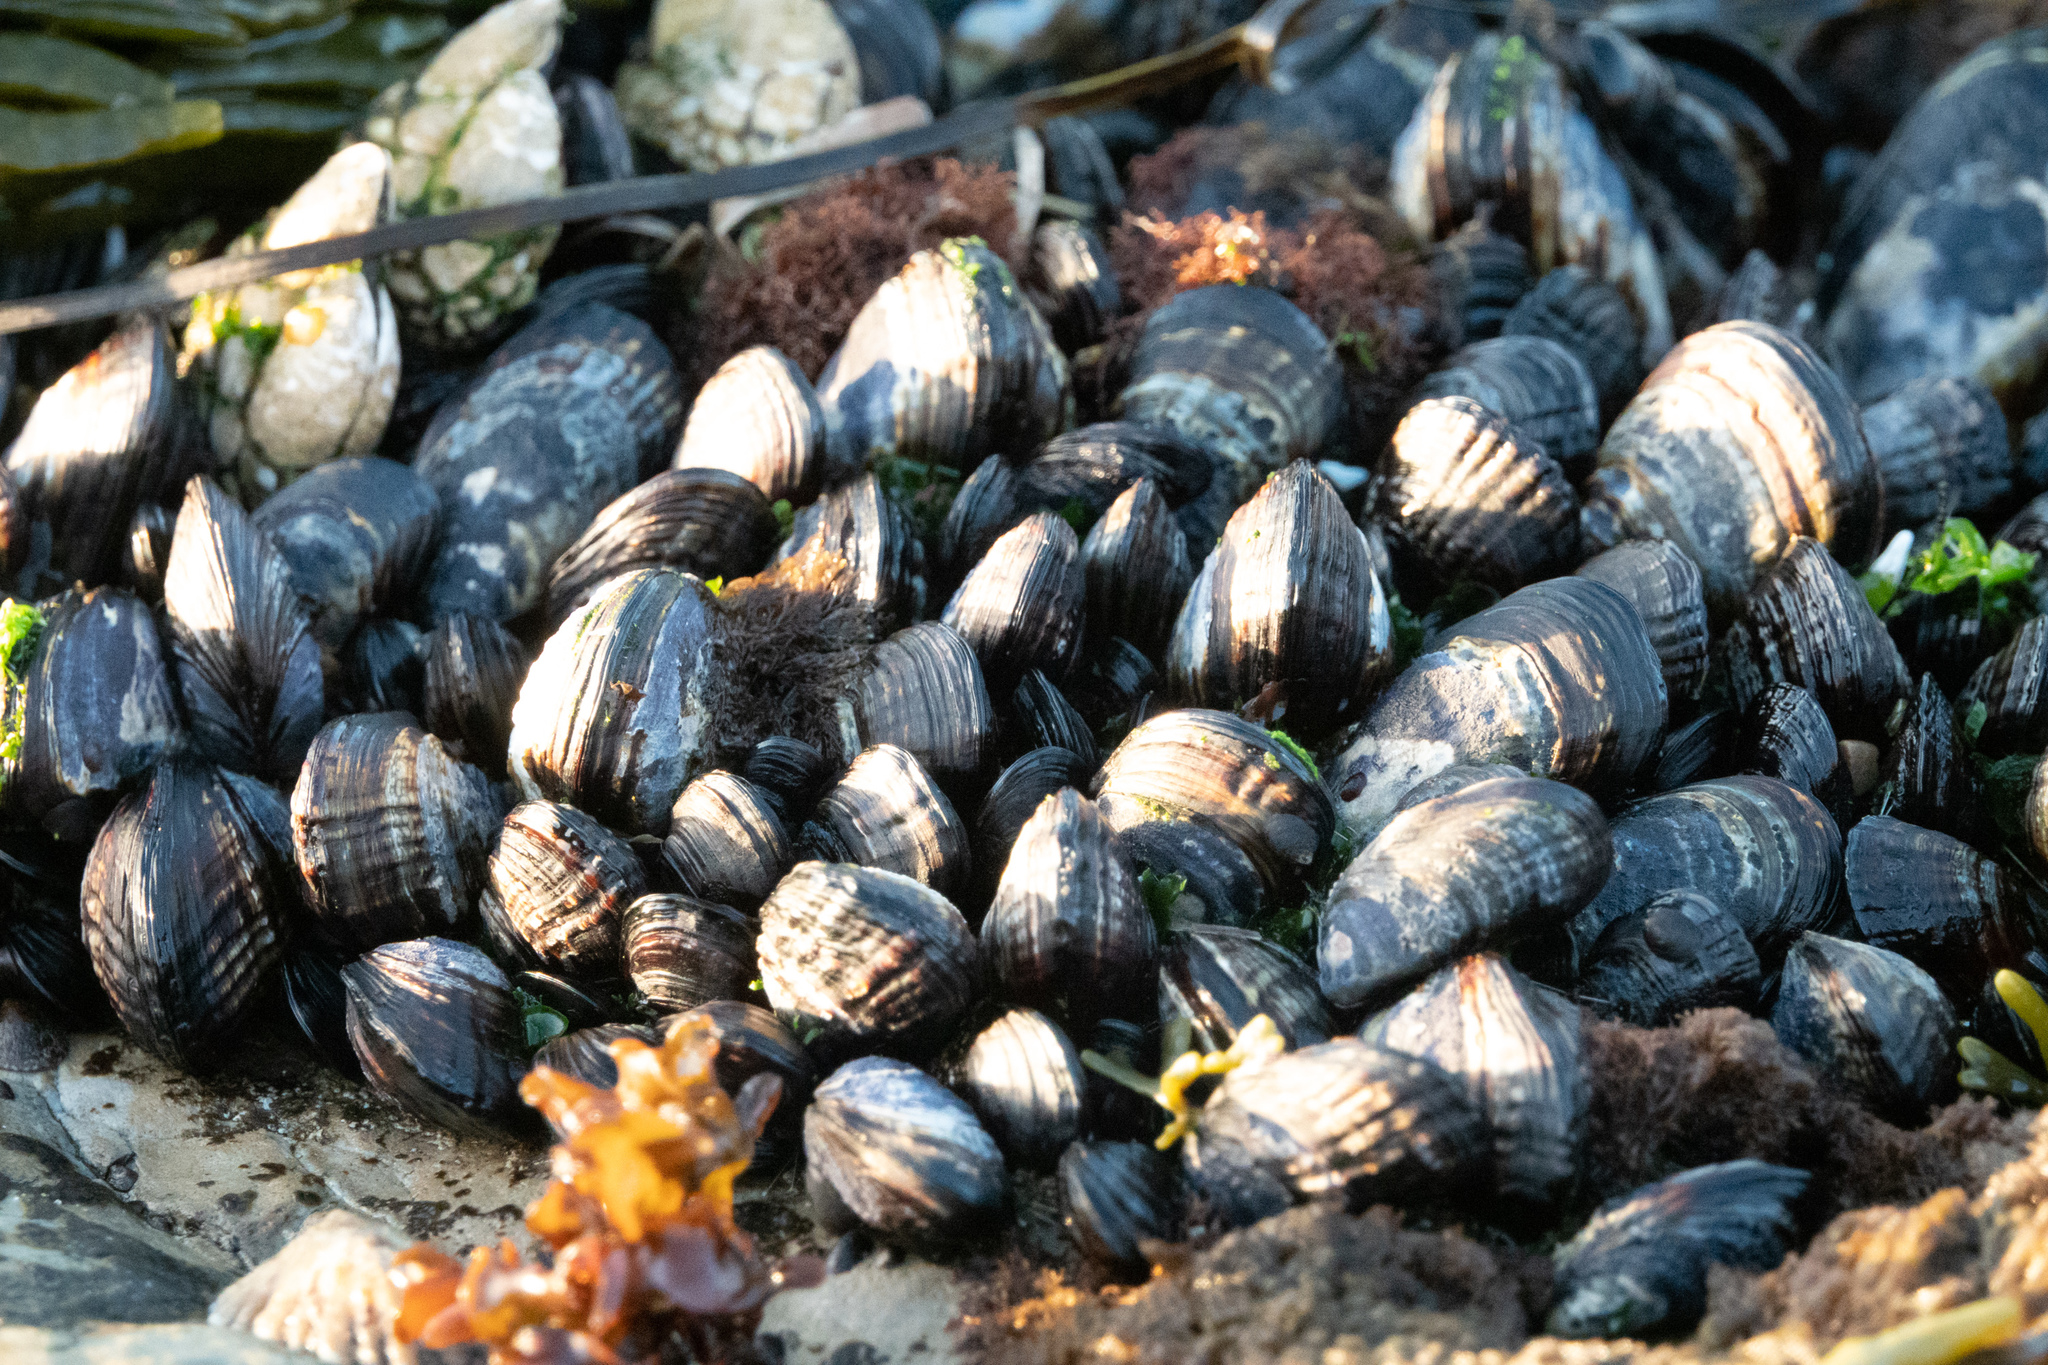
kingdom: Animalia
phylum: Mollusca
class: Bivalvia
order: Mytilida
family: Mytilidae
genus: Mytilus
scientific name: Mytilus californianus
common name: California mussel
